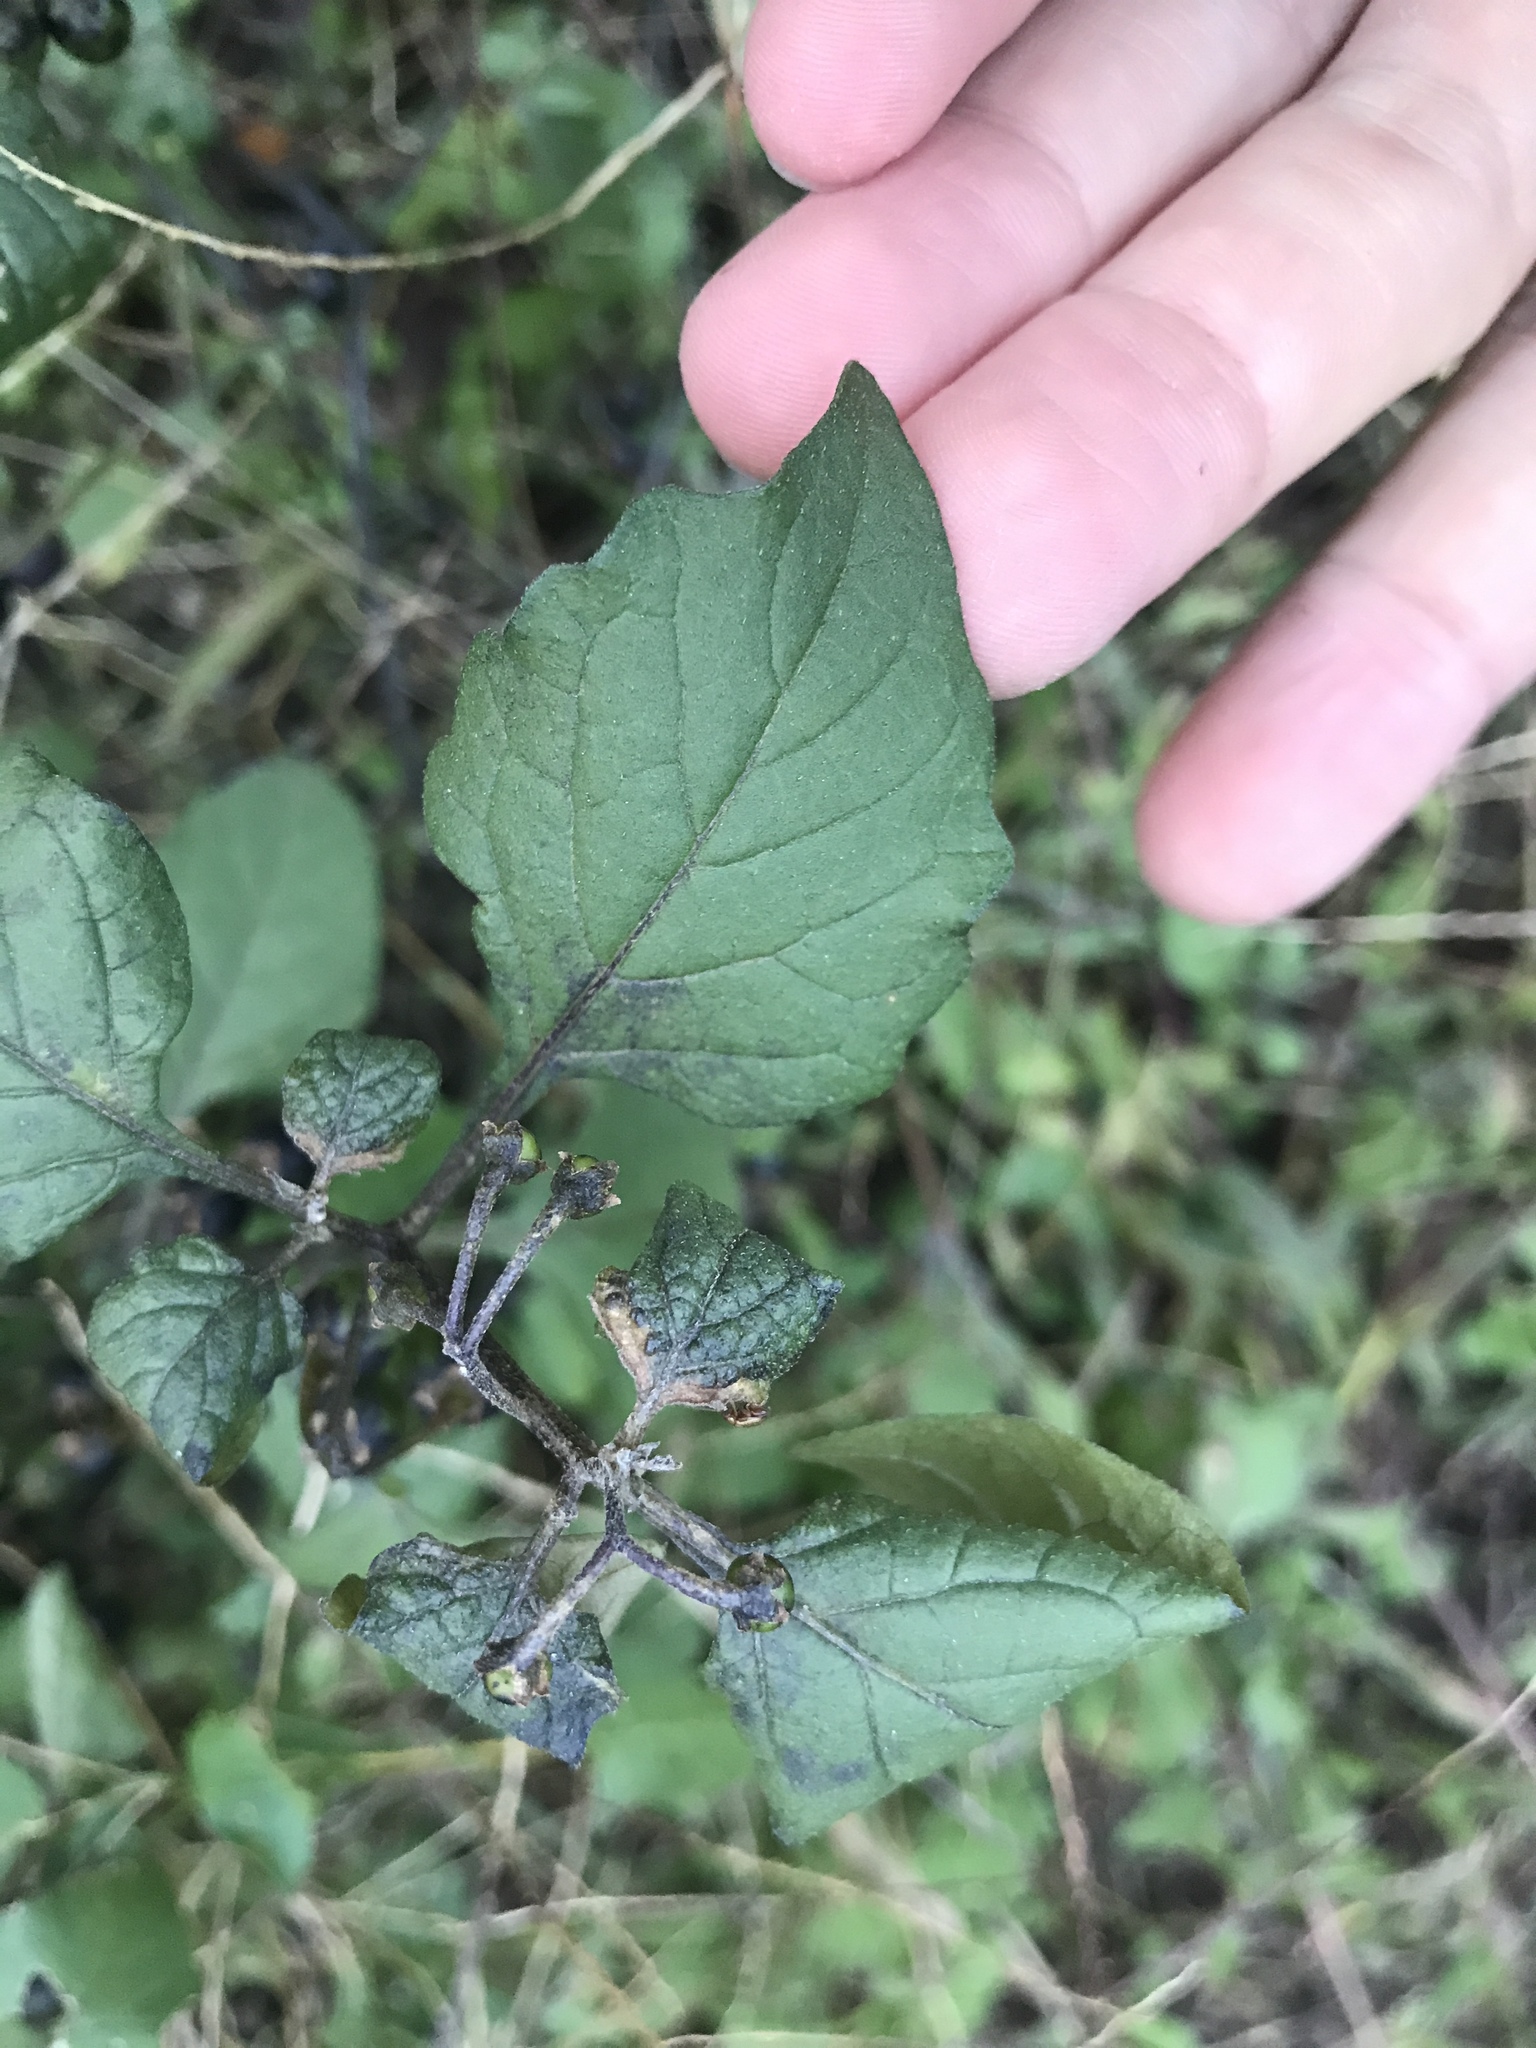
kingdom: Plantae
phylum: Tracheophyta
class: Magnoliopsida
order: Solanales
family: Solanaceae
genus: Solanum
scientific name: Solanum nigrum
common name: Black nightshade
